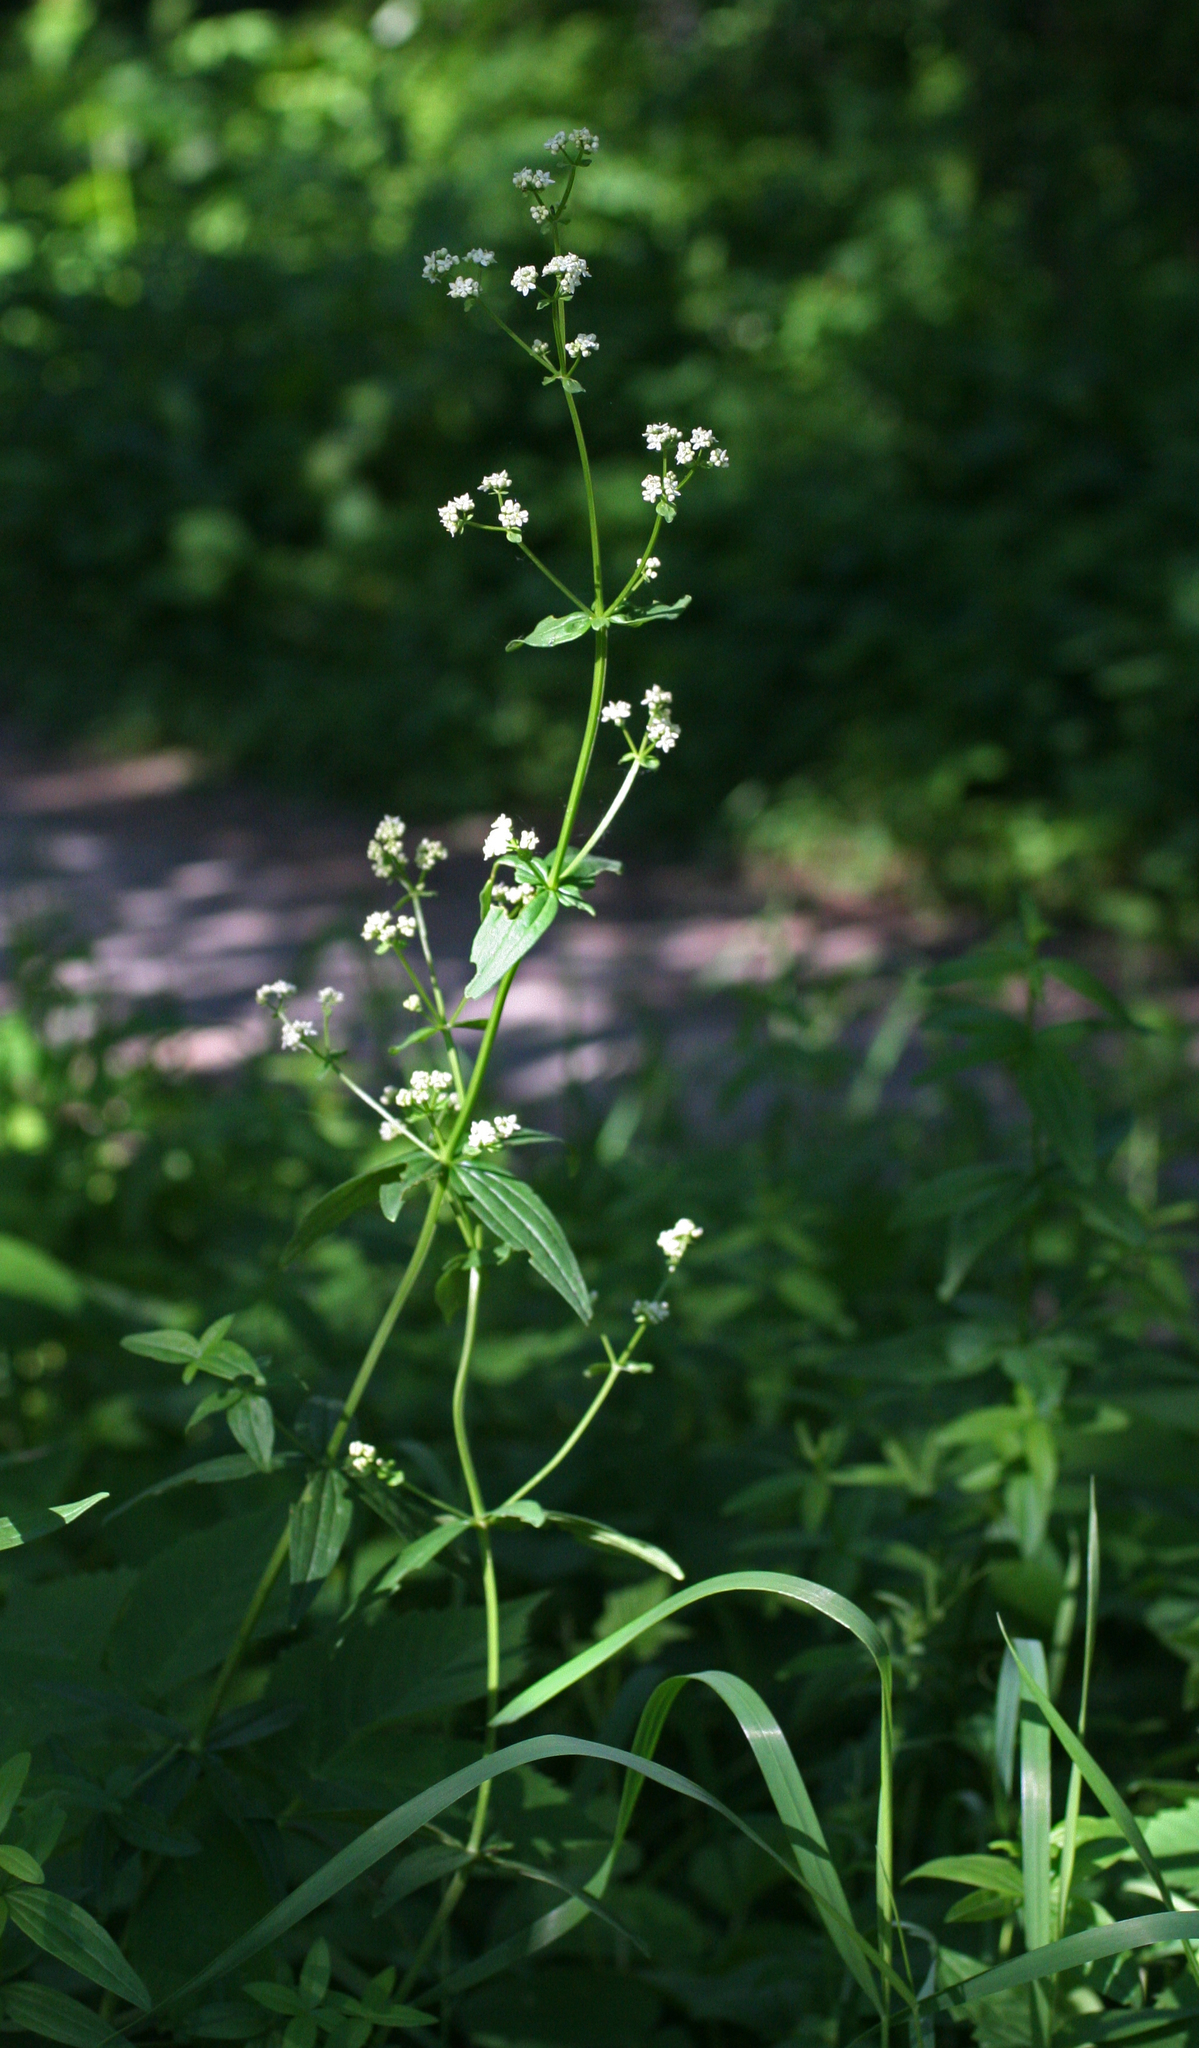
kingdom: Plantae
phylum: Tracheophyta
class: Magnoliopsida
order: Gentianales
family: Rubiaceae
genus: Galium
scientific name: Galium boreale
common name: Northern bedstraw
